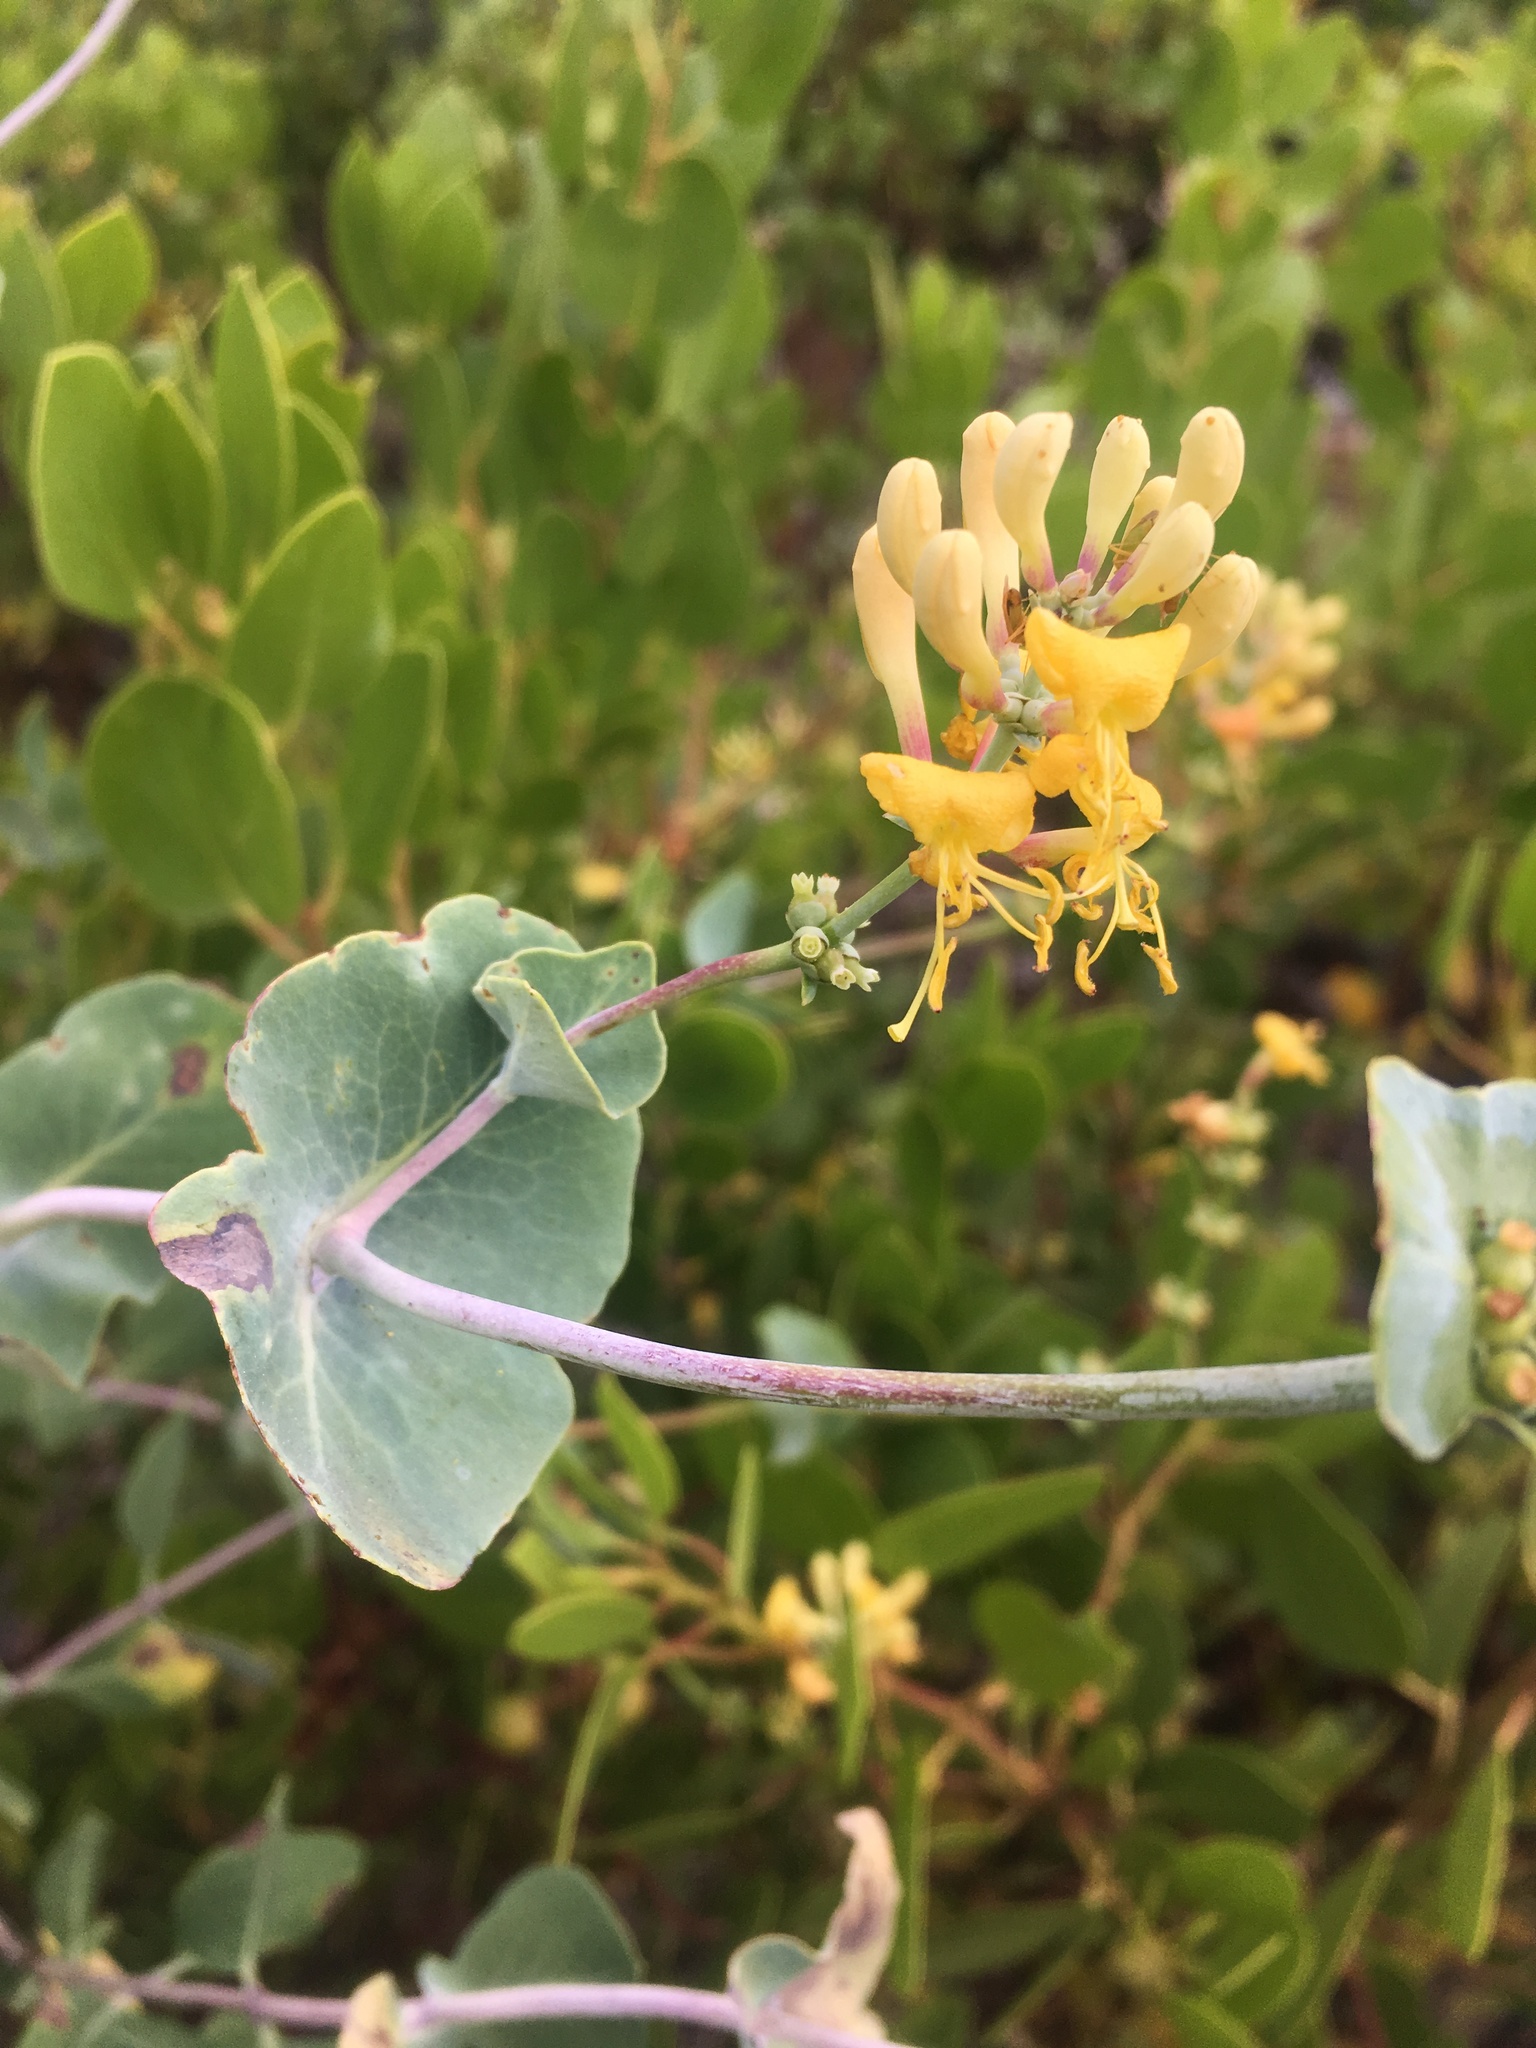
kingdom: Plantae
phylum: Tracheophyta
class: Magnoliopsida
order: Dipsacales
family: Caprifoliaceae
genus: Lonicera
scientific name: Lonicera interrupta
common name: Chaparral honeysuckle
